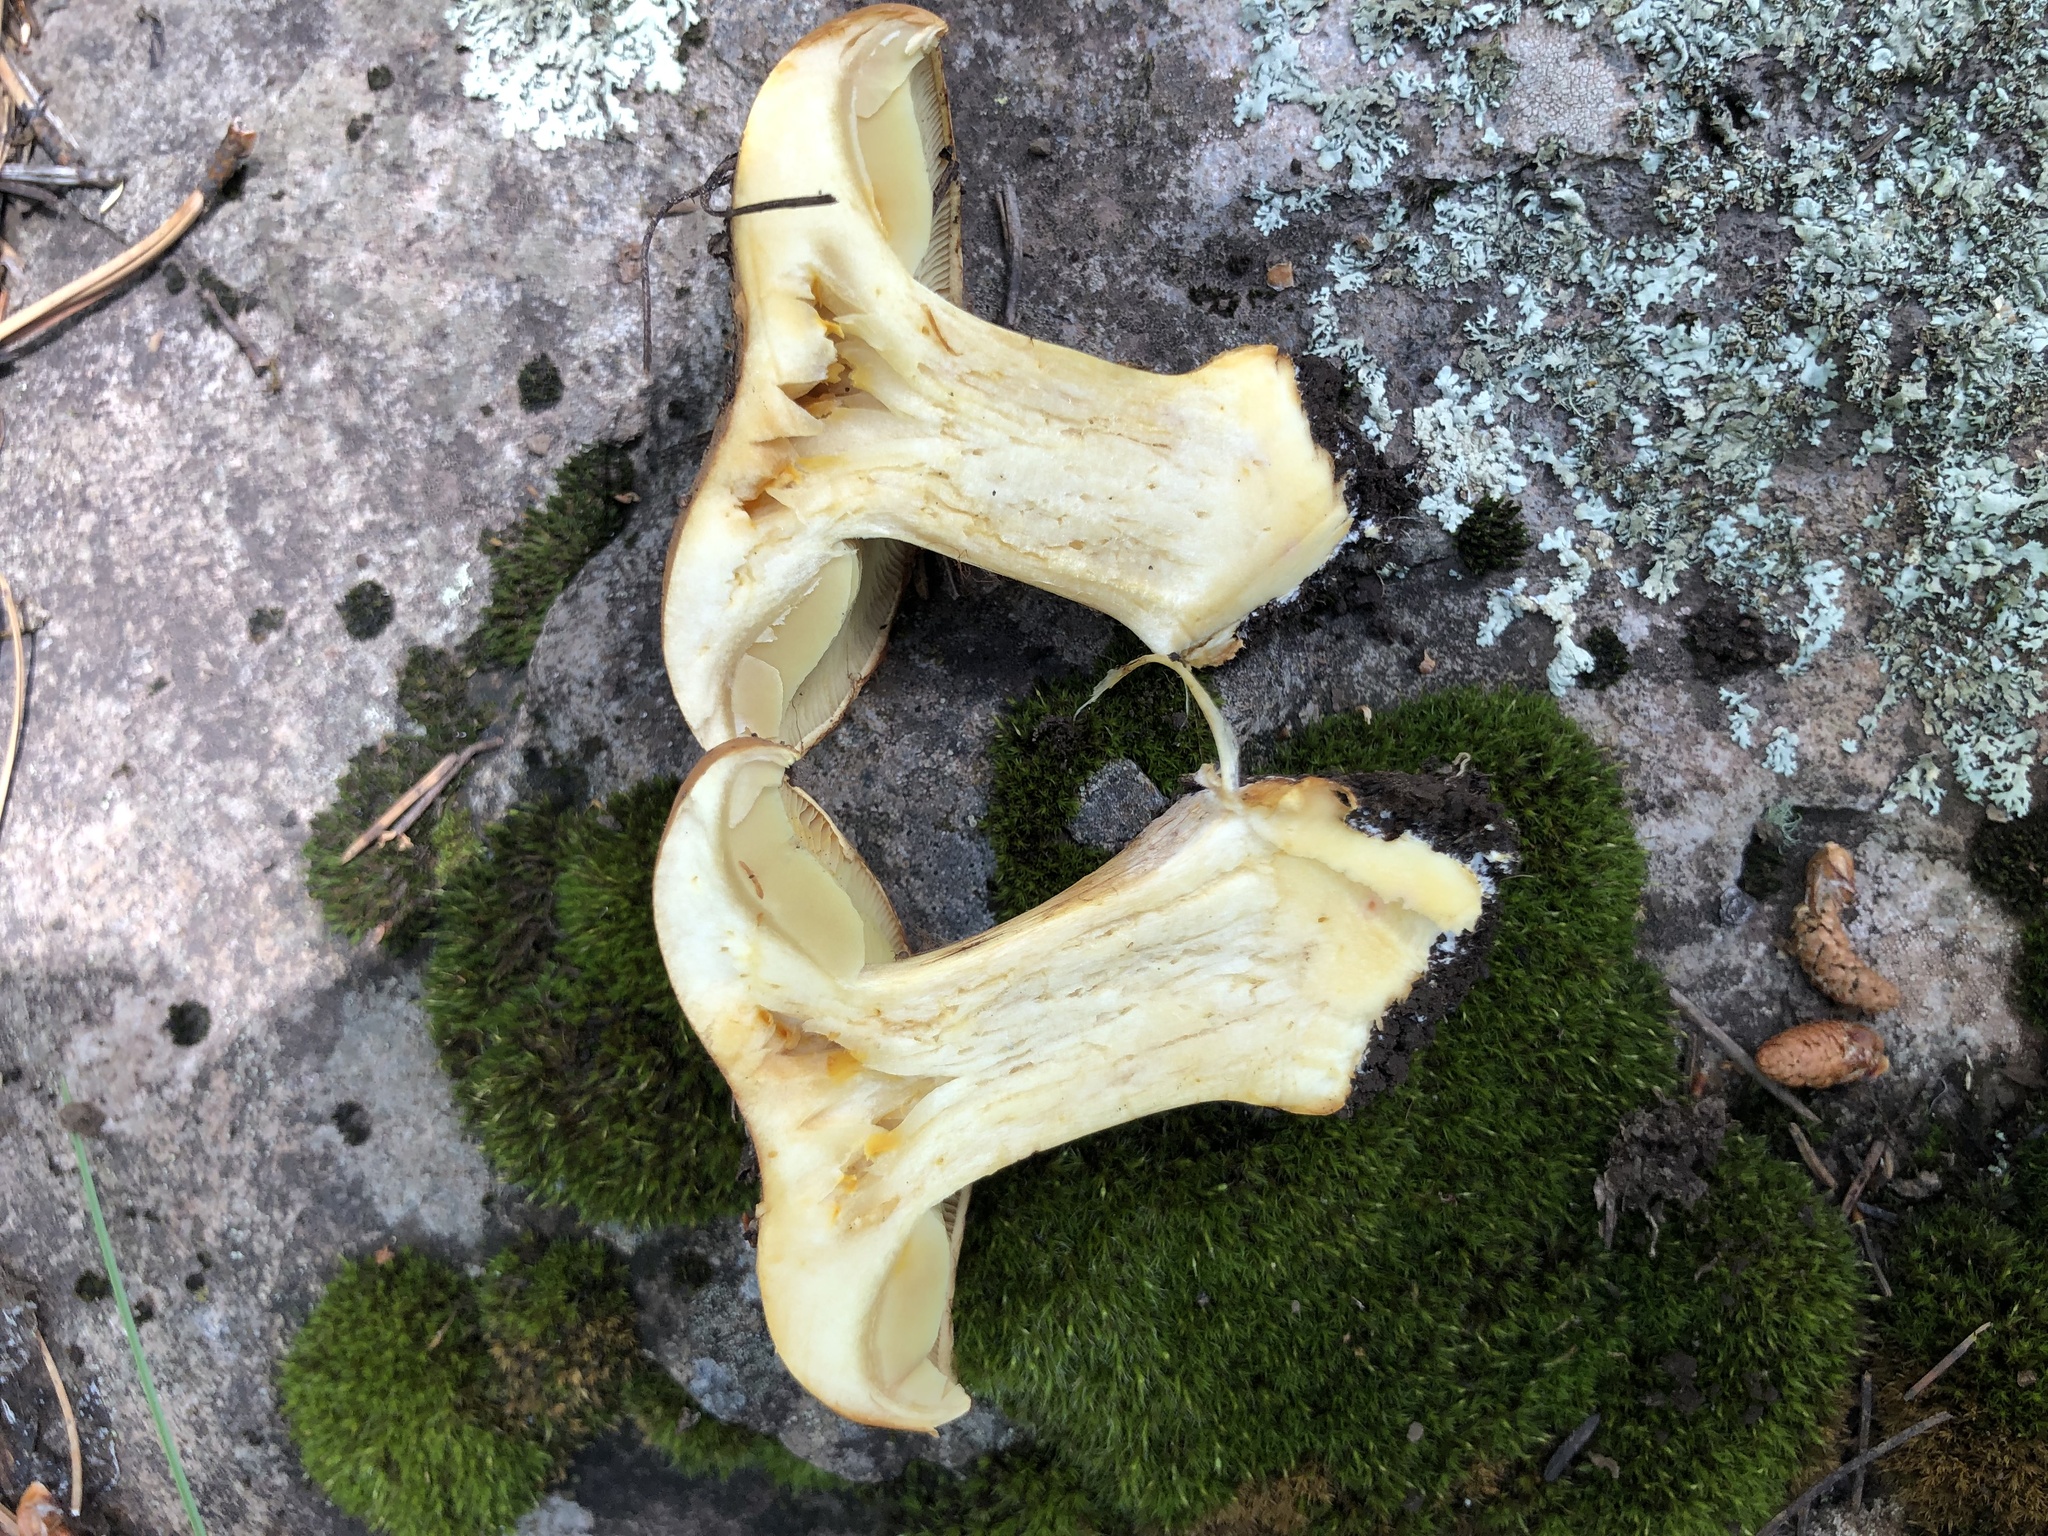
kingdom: Fungi
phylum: Basidiomycota
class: Agaricomycetes
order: Agaricales
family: Cortinariaceae
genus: Calonarius
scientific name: Calonarius elegantiomontanus
